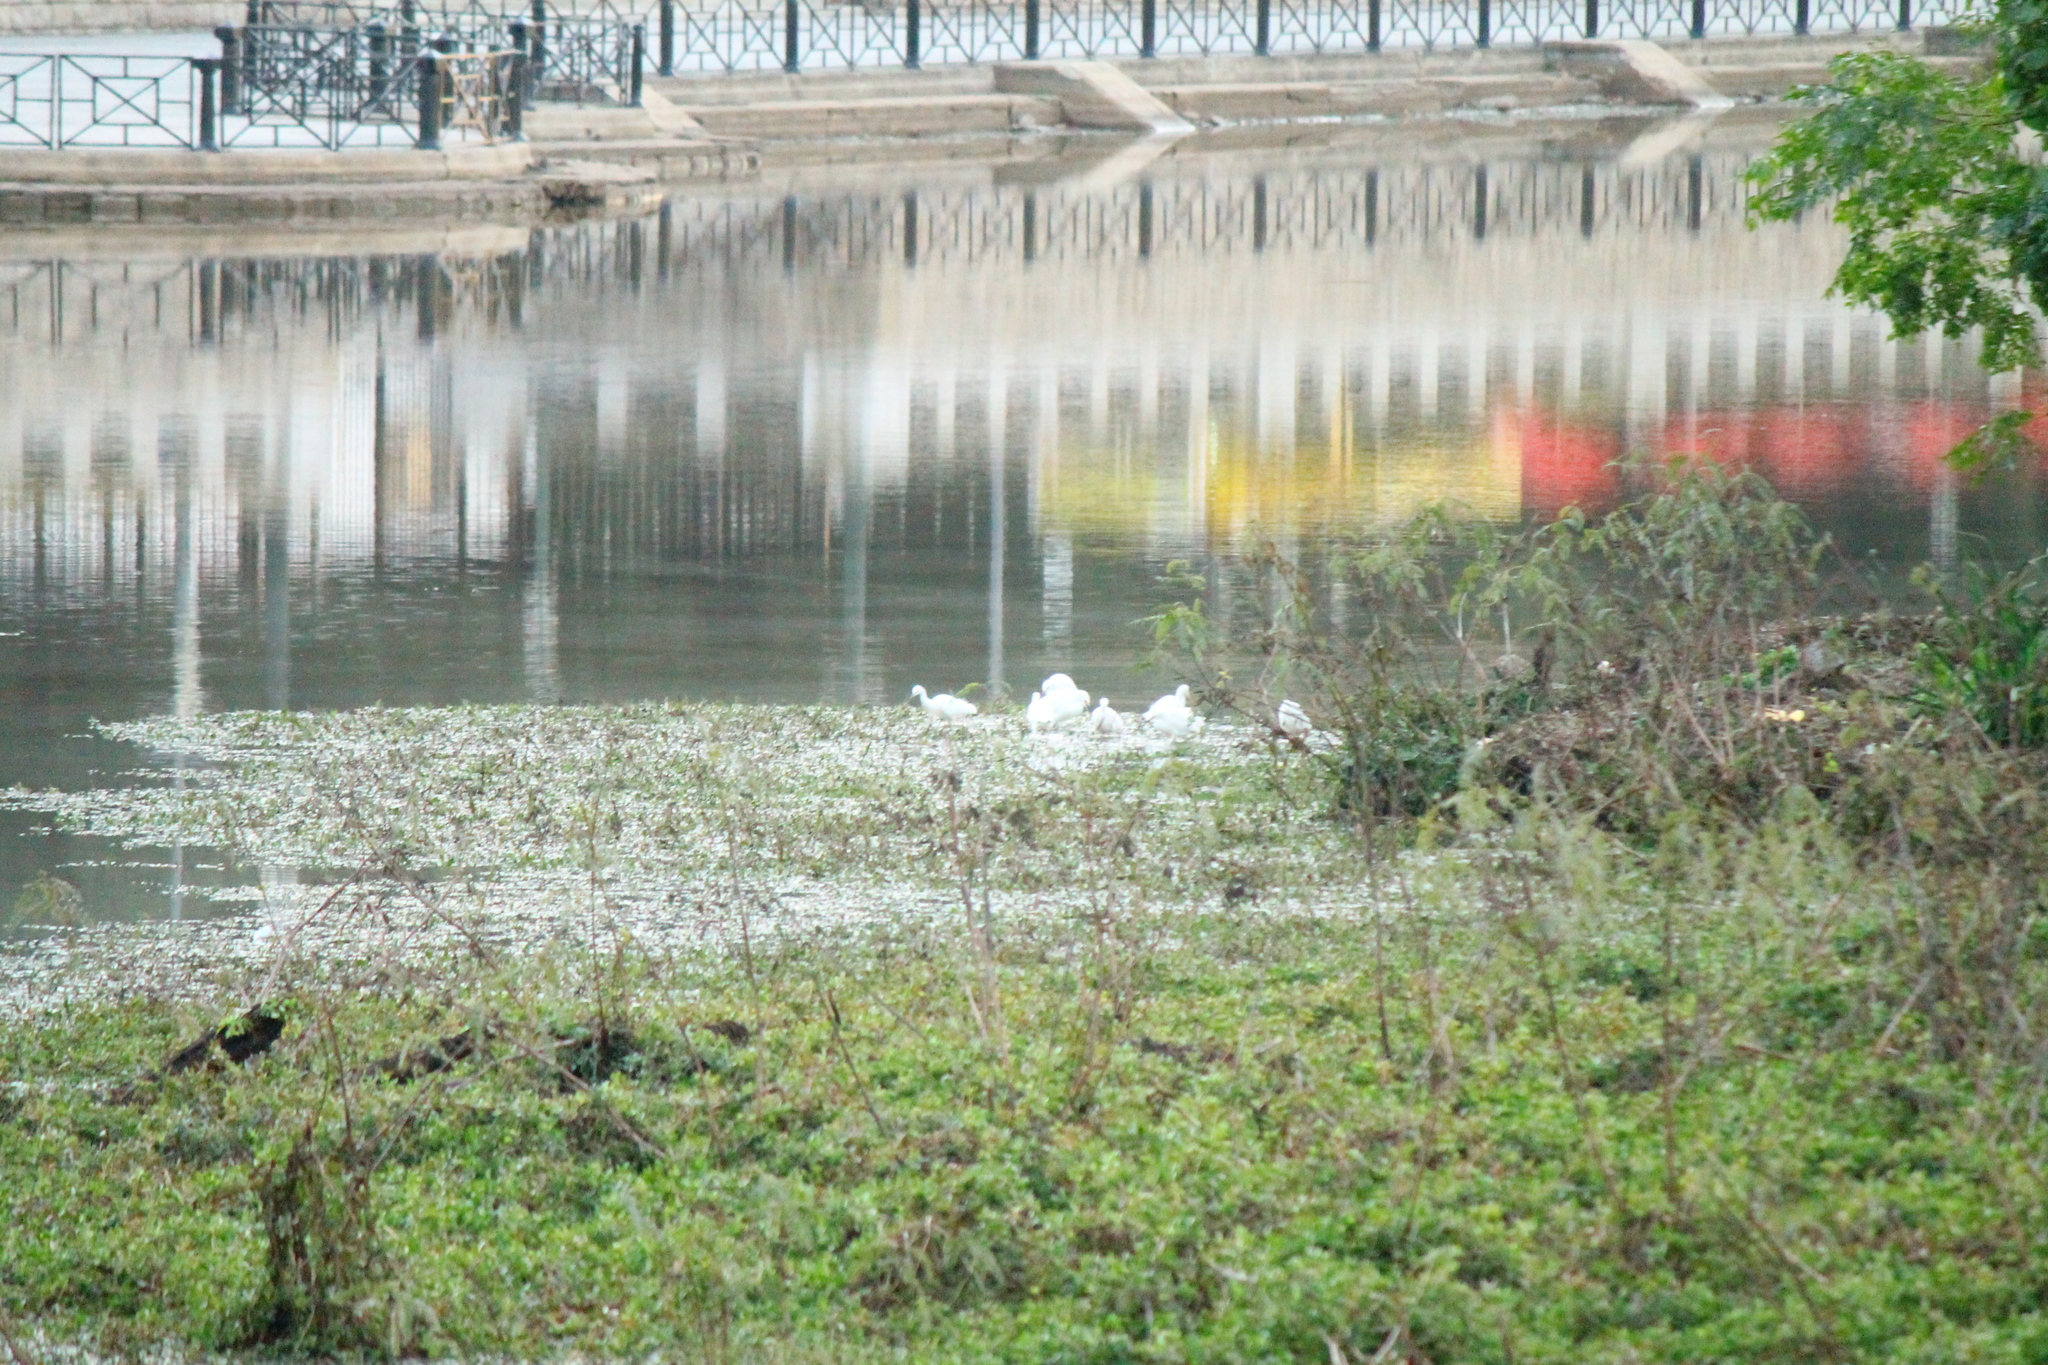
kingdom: Animalia
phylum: Chordata
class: Aves
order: Pelecaniformes
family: Ardeidae
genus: Egretta
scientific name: Egretta thula
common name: Snowy egret
